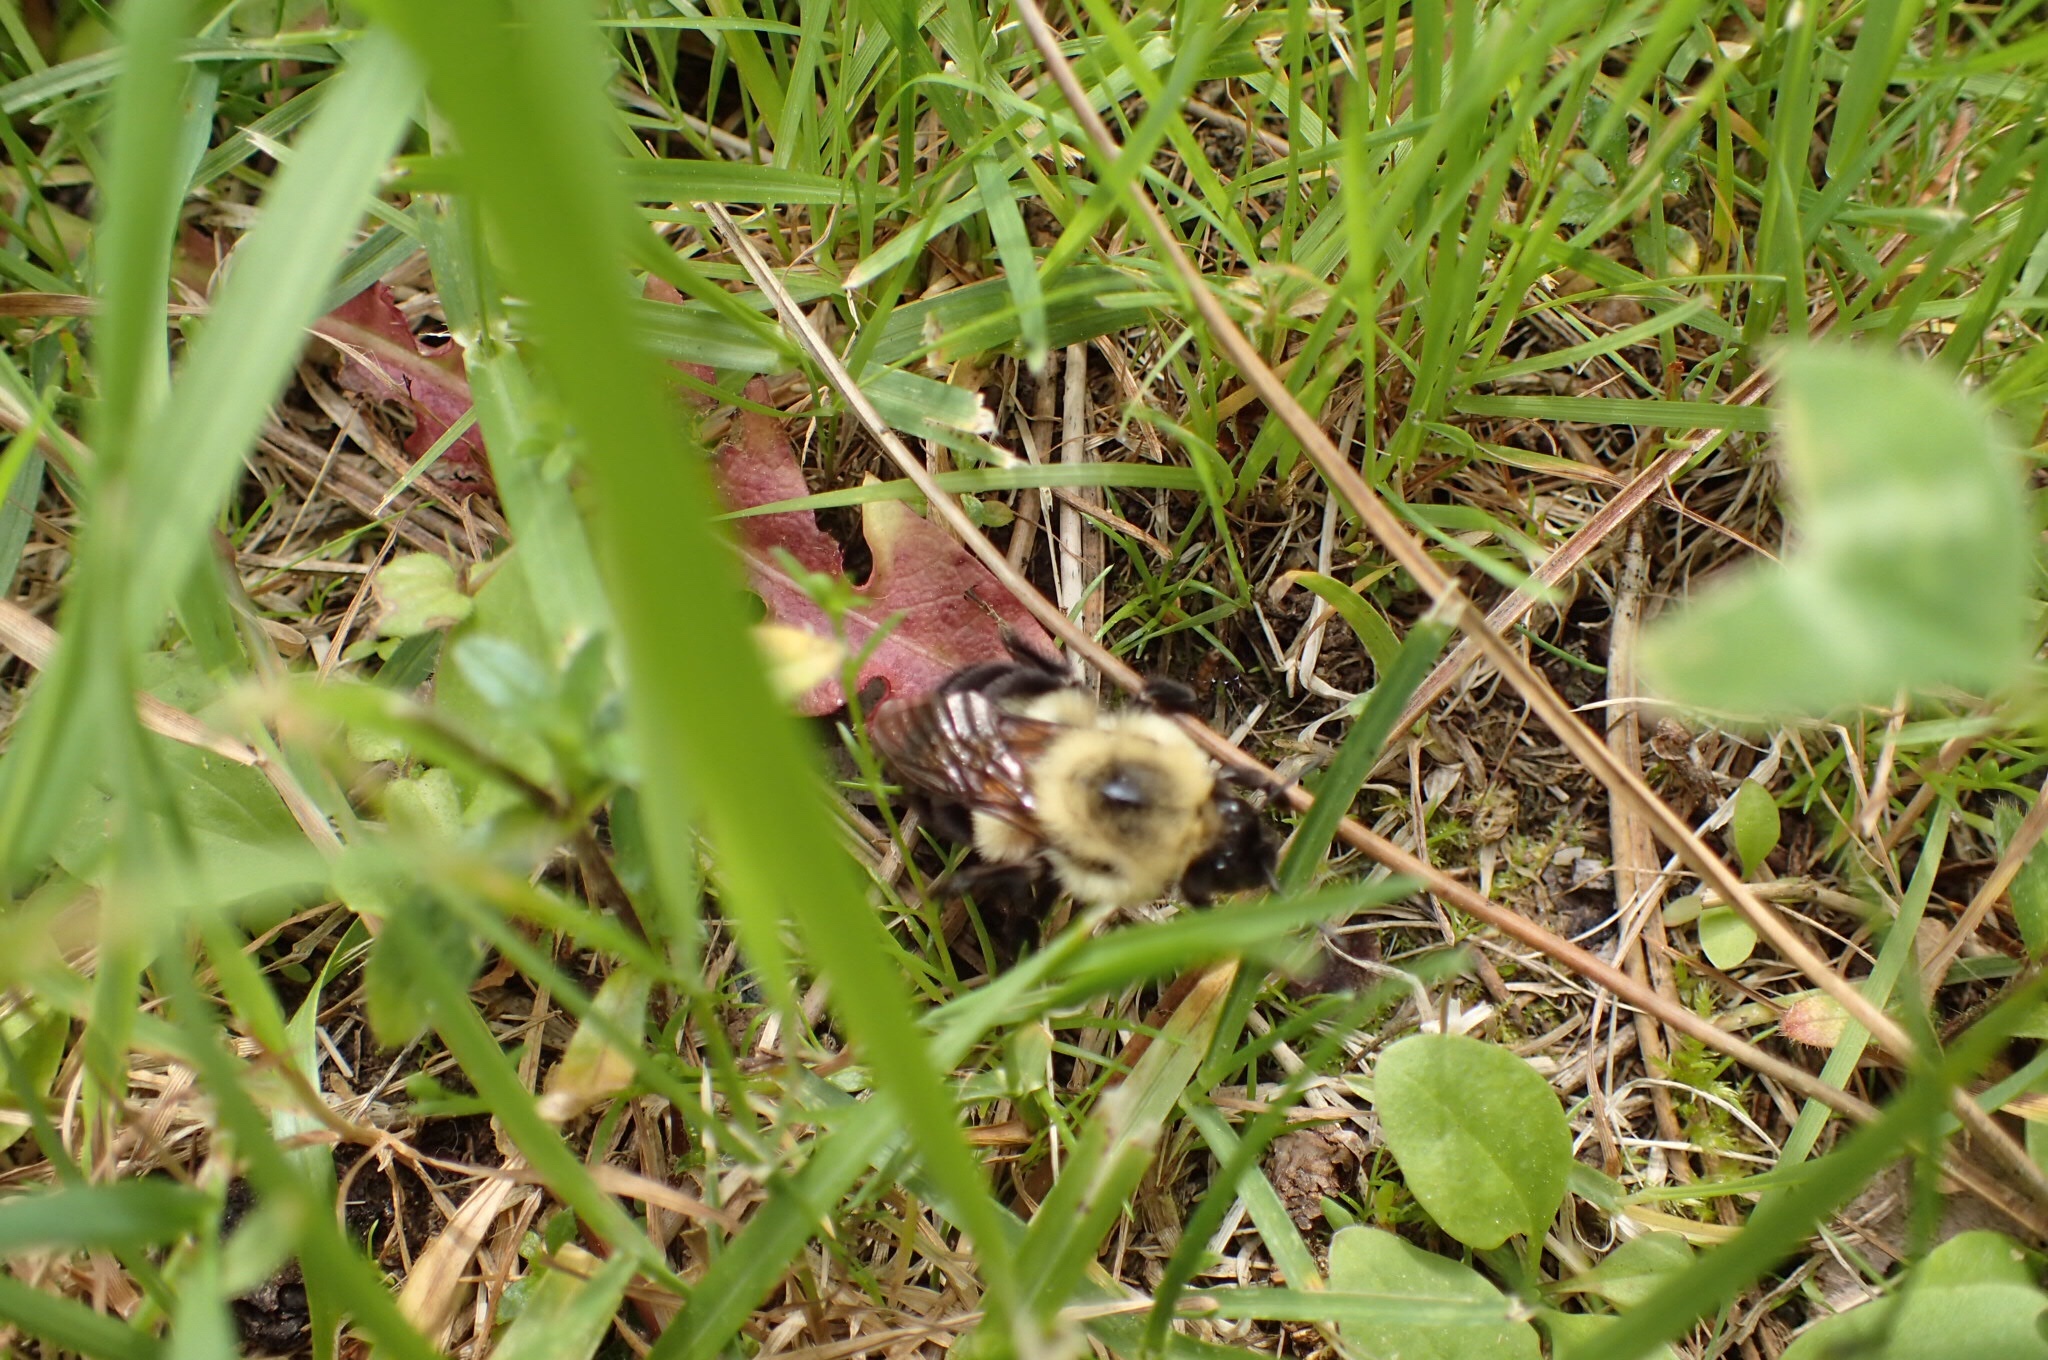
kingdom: Animalia
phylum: Arthropoda
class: Insecta
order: Hymenoptera
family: Apidae
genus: Bombus
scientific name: Bombus bimaculatus
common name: Two-spotted bumble bee
